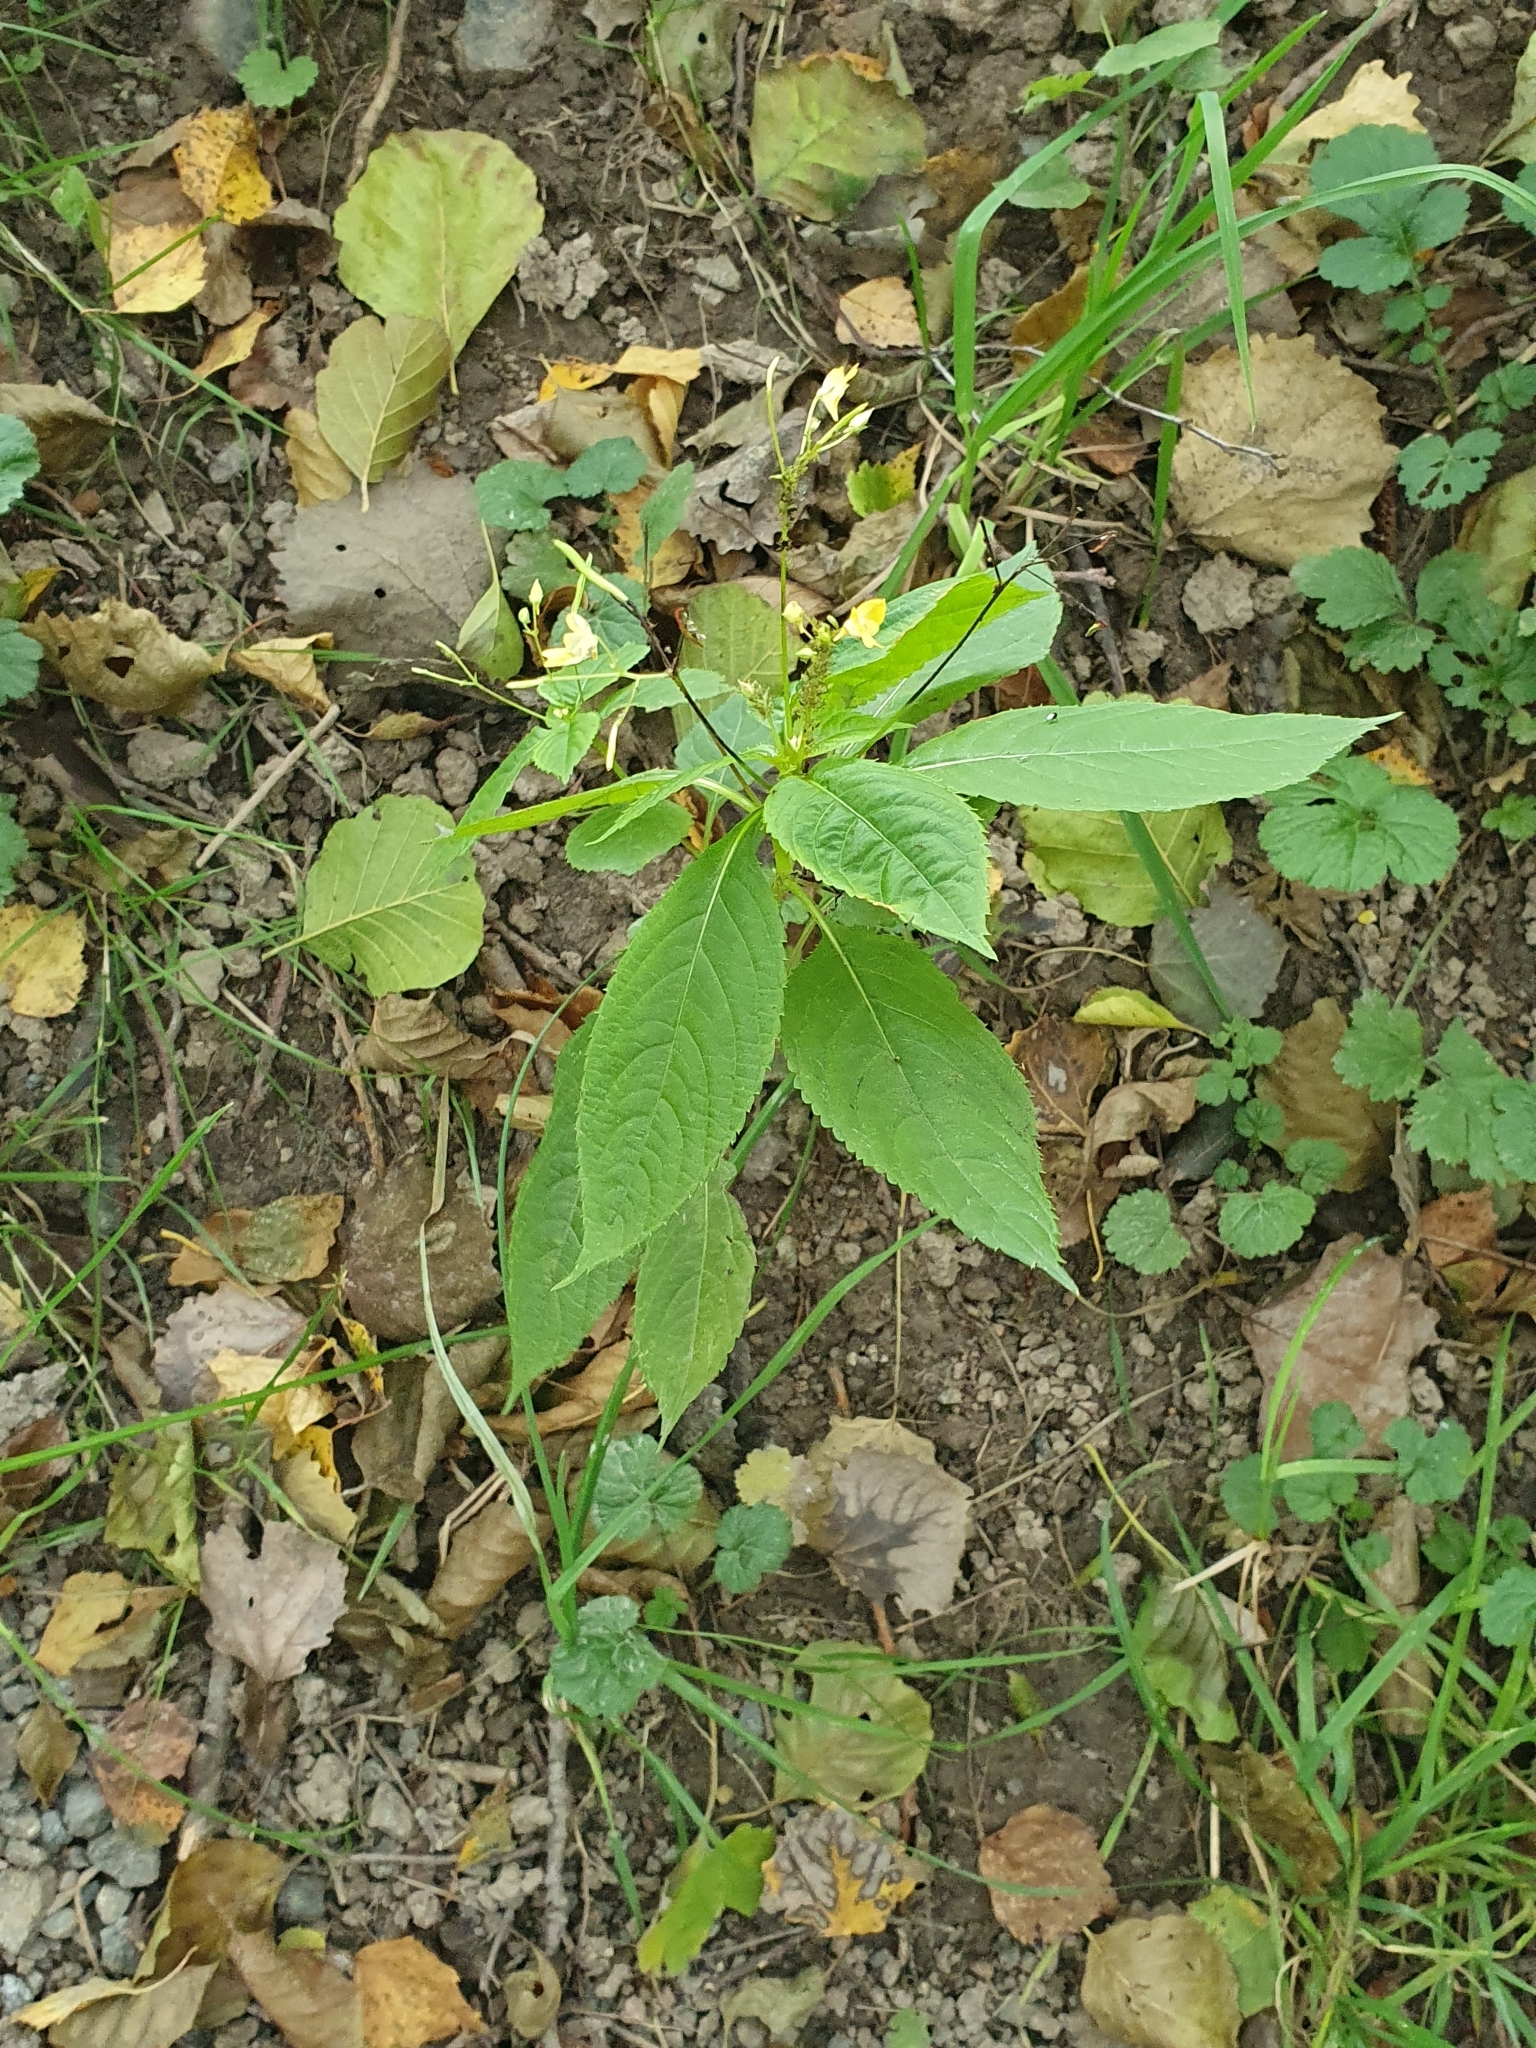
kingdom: Plantae
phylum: Tracheophyta
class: Magnoliopsida
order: Ericales
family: Balsaminaceae
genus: Impatiens
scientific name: Impatiens parviflora
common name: Small balsam
